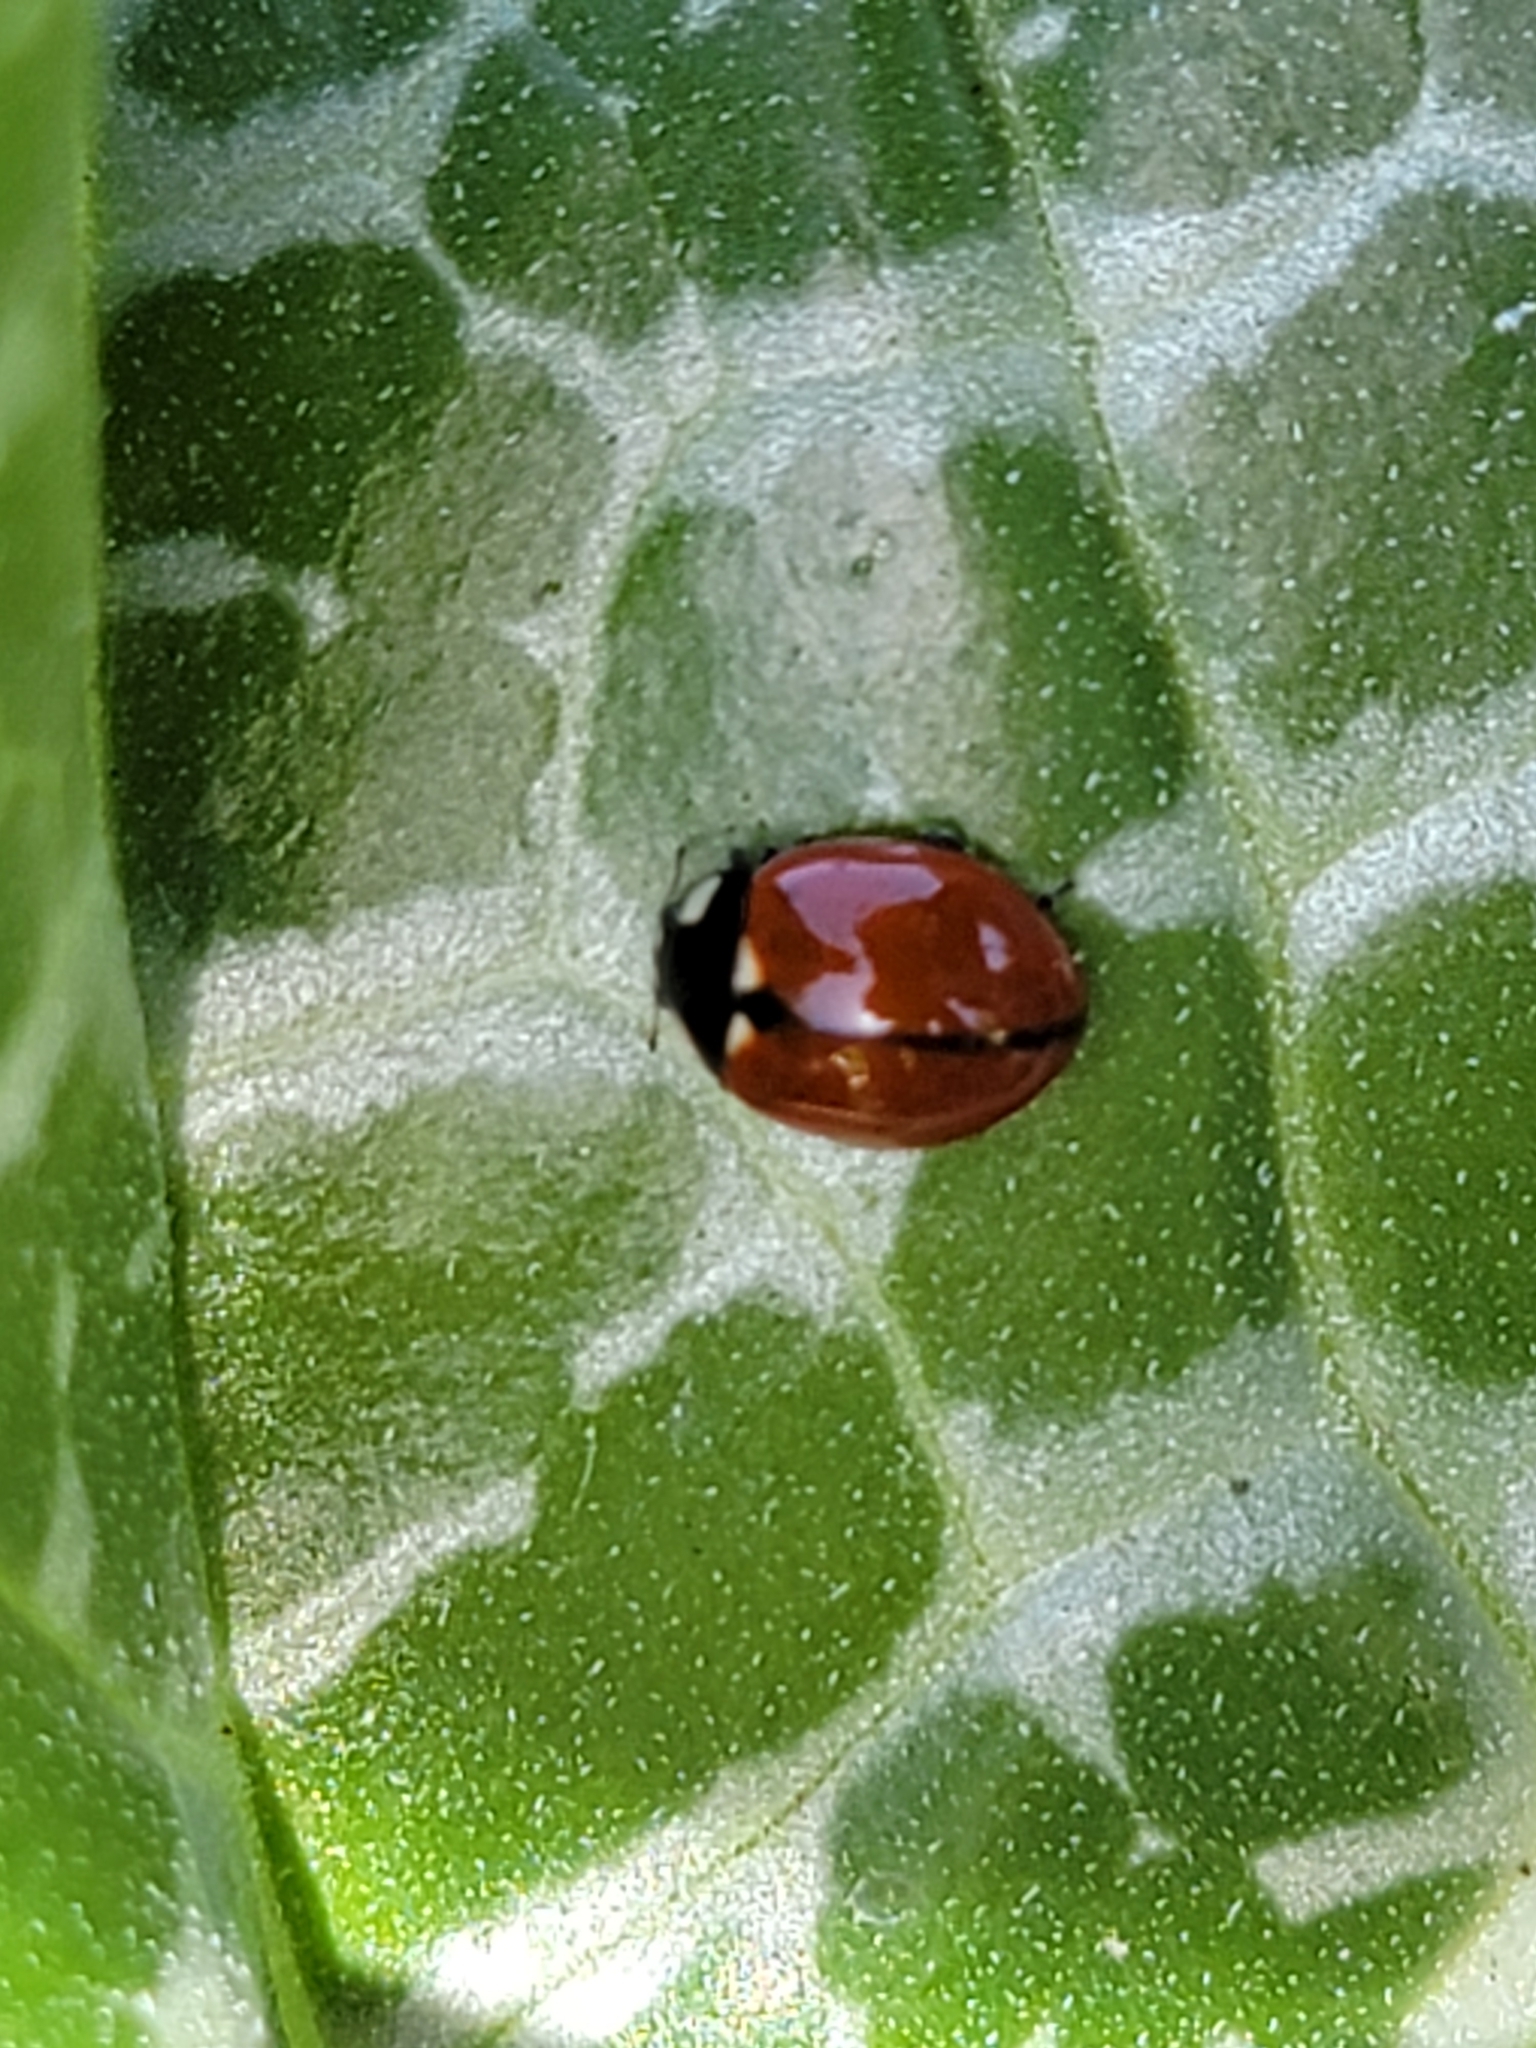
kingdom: Animalia
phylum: Arthropoda
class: Insecta
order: Coleoptera
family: Coccinellidae
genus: Coccinella
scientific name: Coccinella californica
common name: Lady beetle
